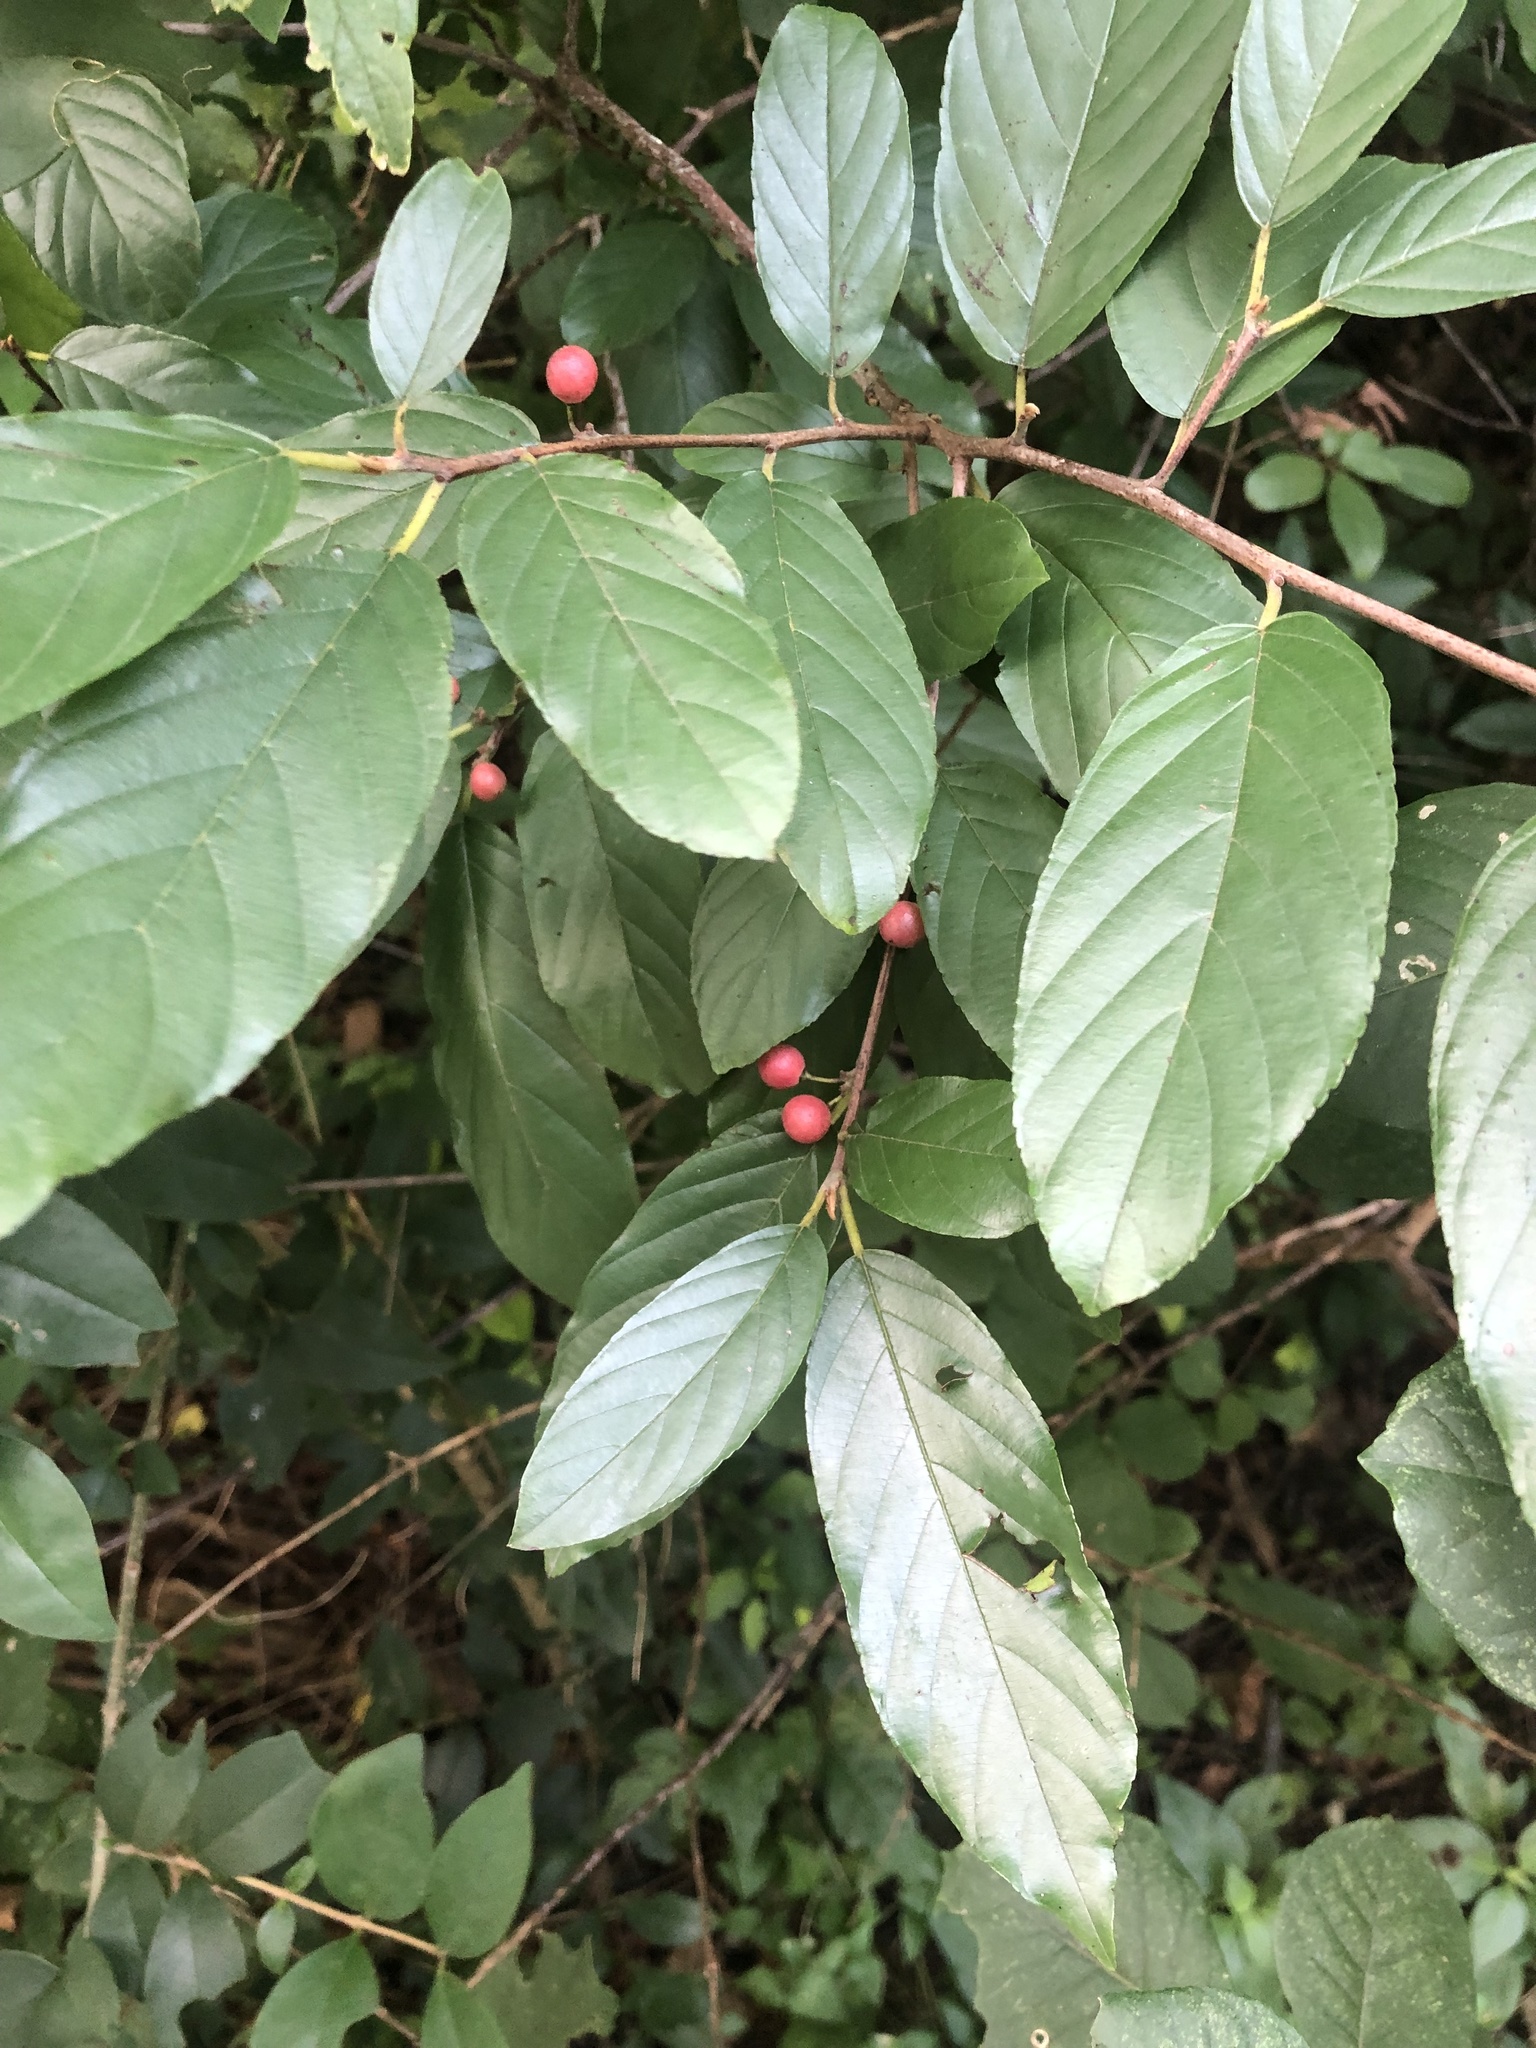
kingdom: Plantae
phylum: Tracheophyta
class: Magnoliopsida
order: Rosales
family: Rhamnaceae
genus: Frangula
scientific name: Frangula caroliniana
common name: Carolina buckthorn
